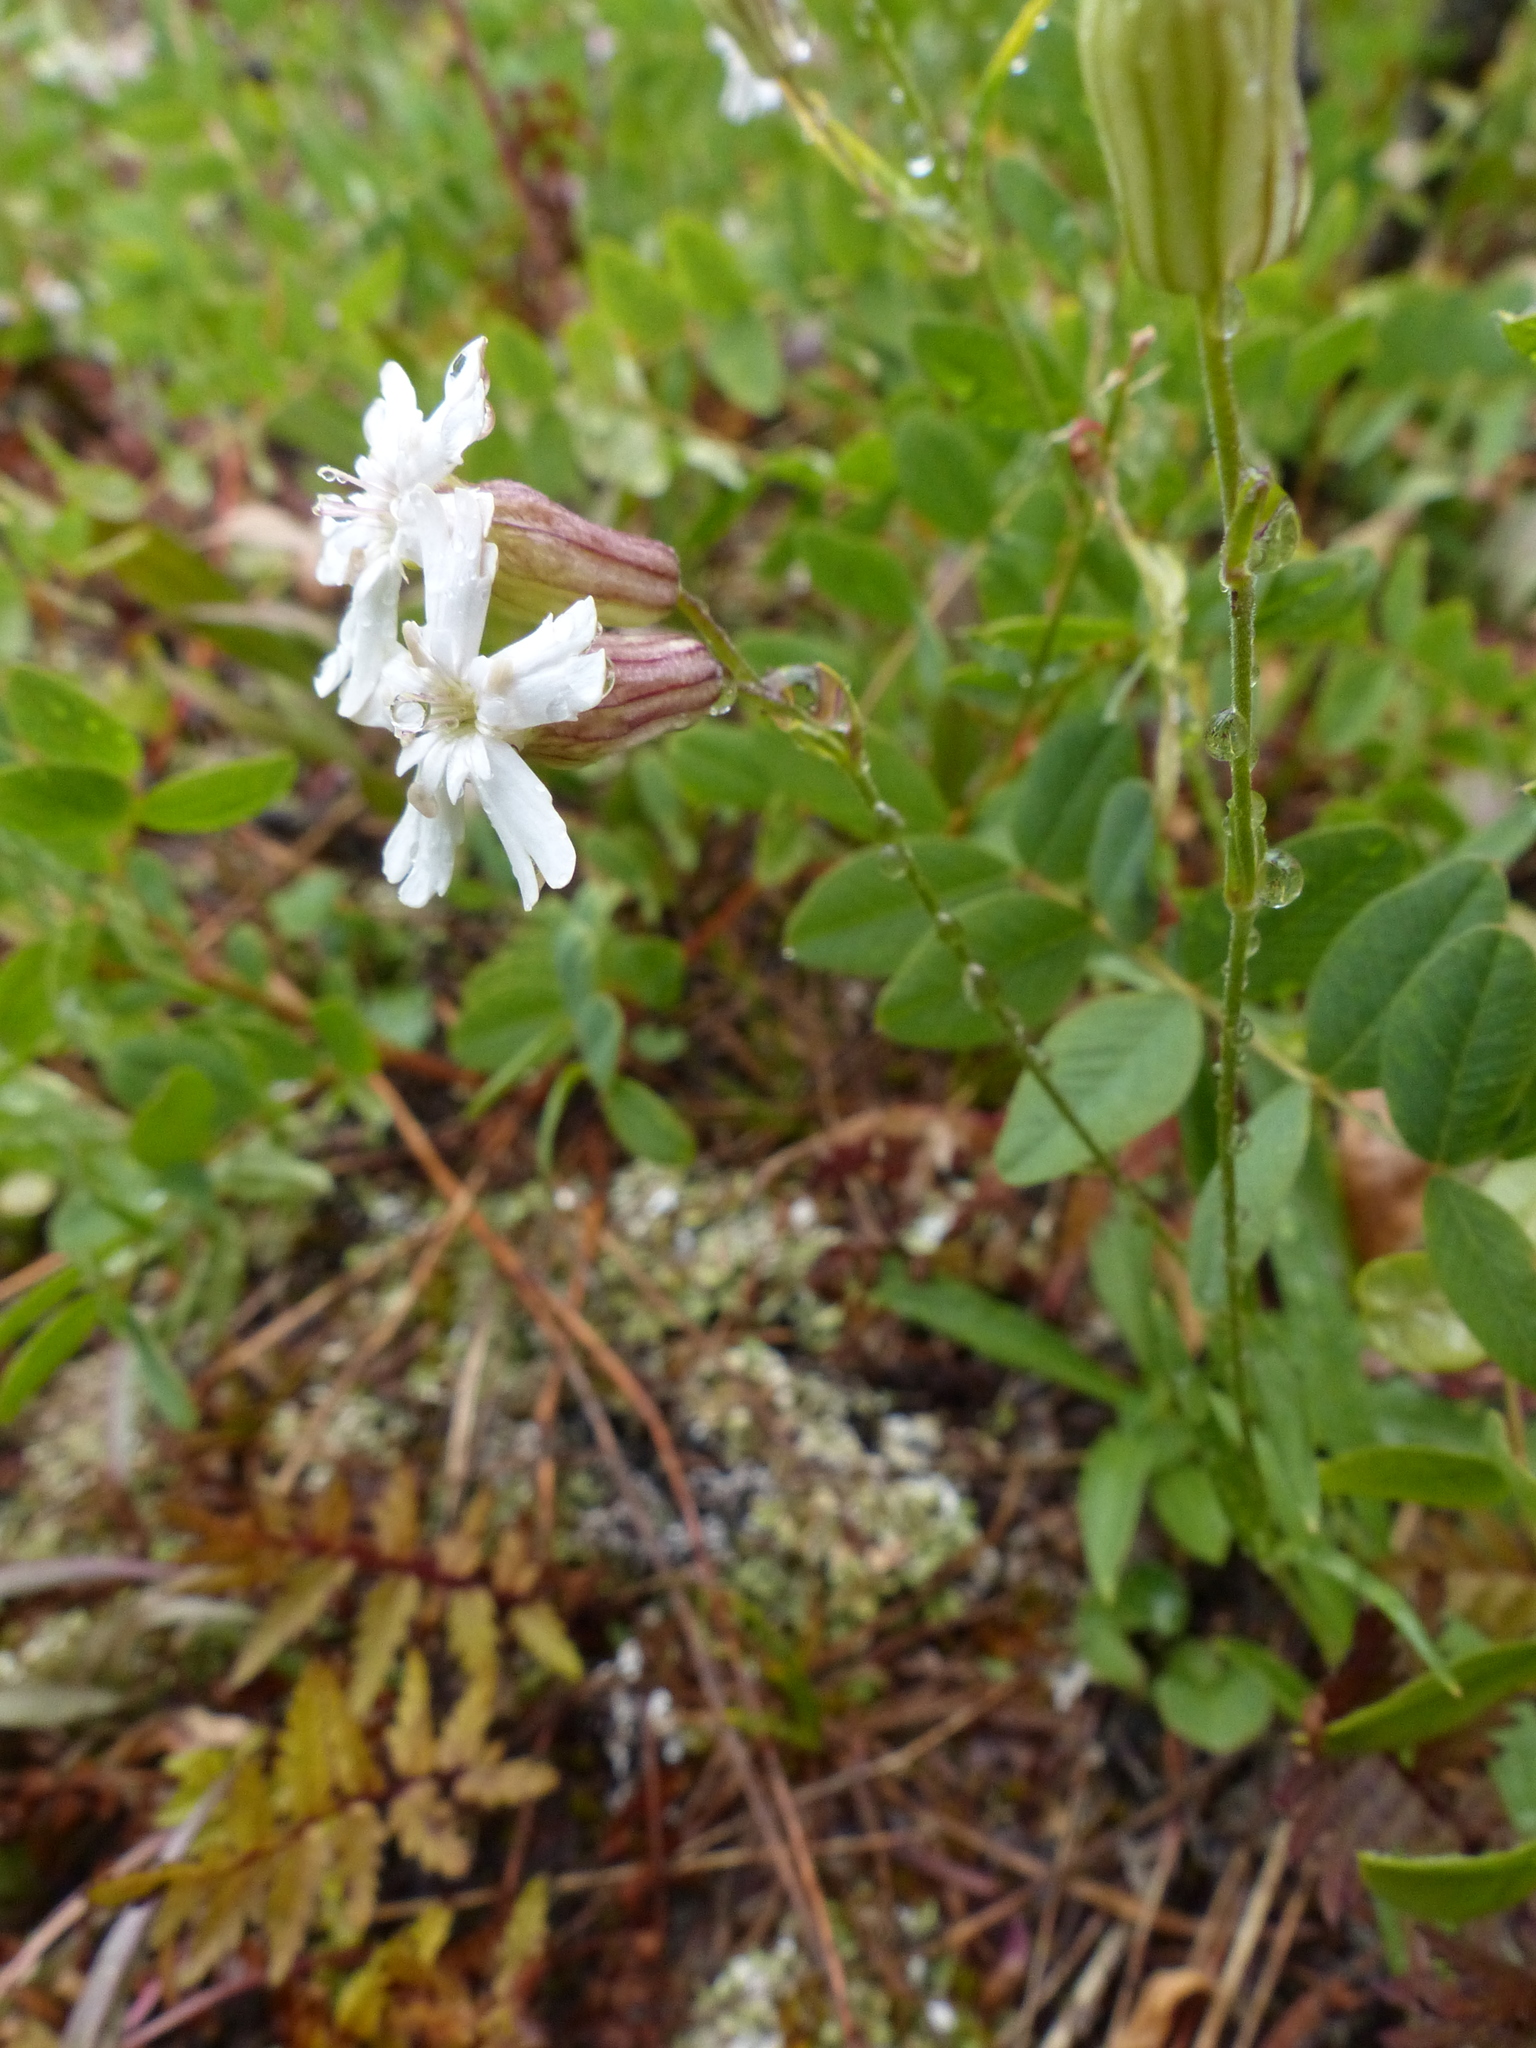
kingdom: Plantae
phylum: Tracheophyta
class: Magnoliopsida
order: Caryophyllales
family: Caryophyllaceae
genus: Silene
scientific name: Silene douglasii
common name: Douglas's catchfly
